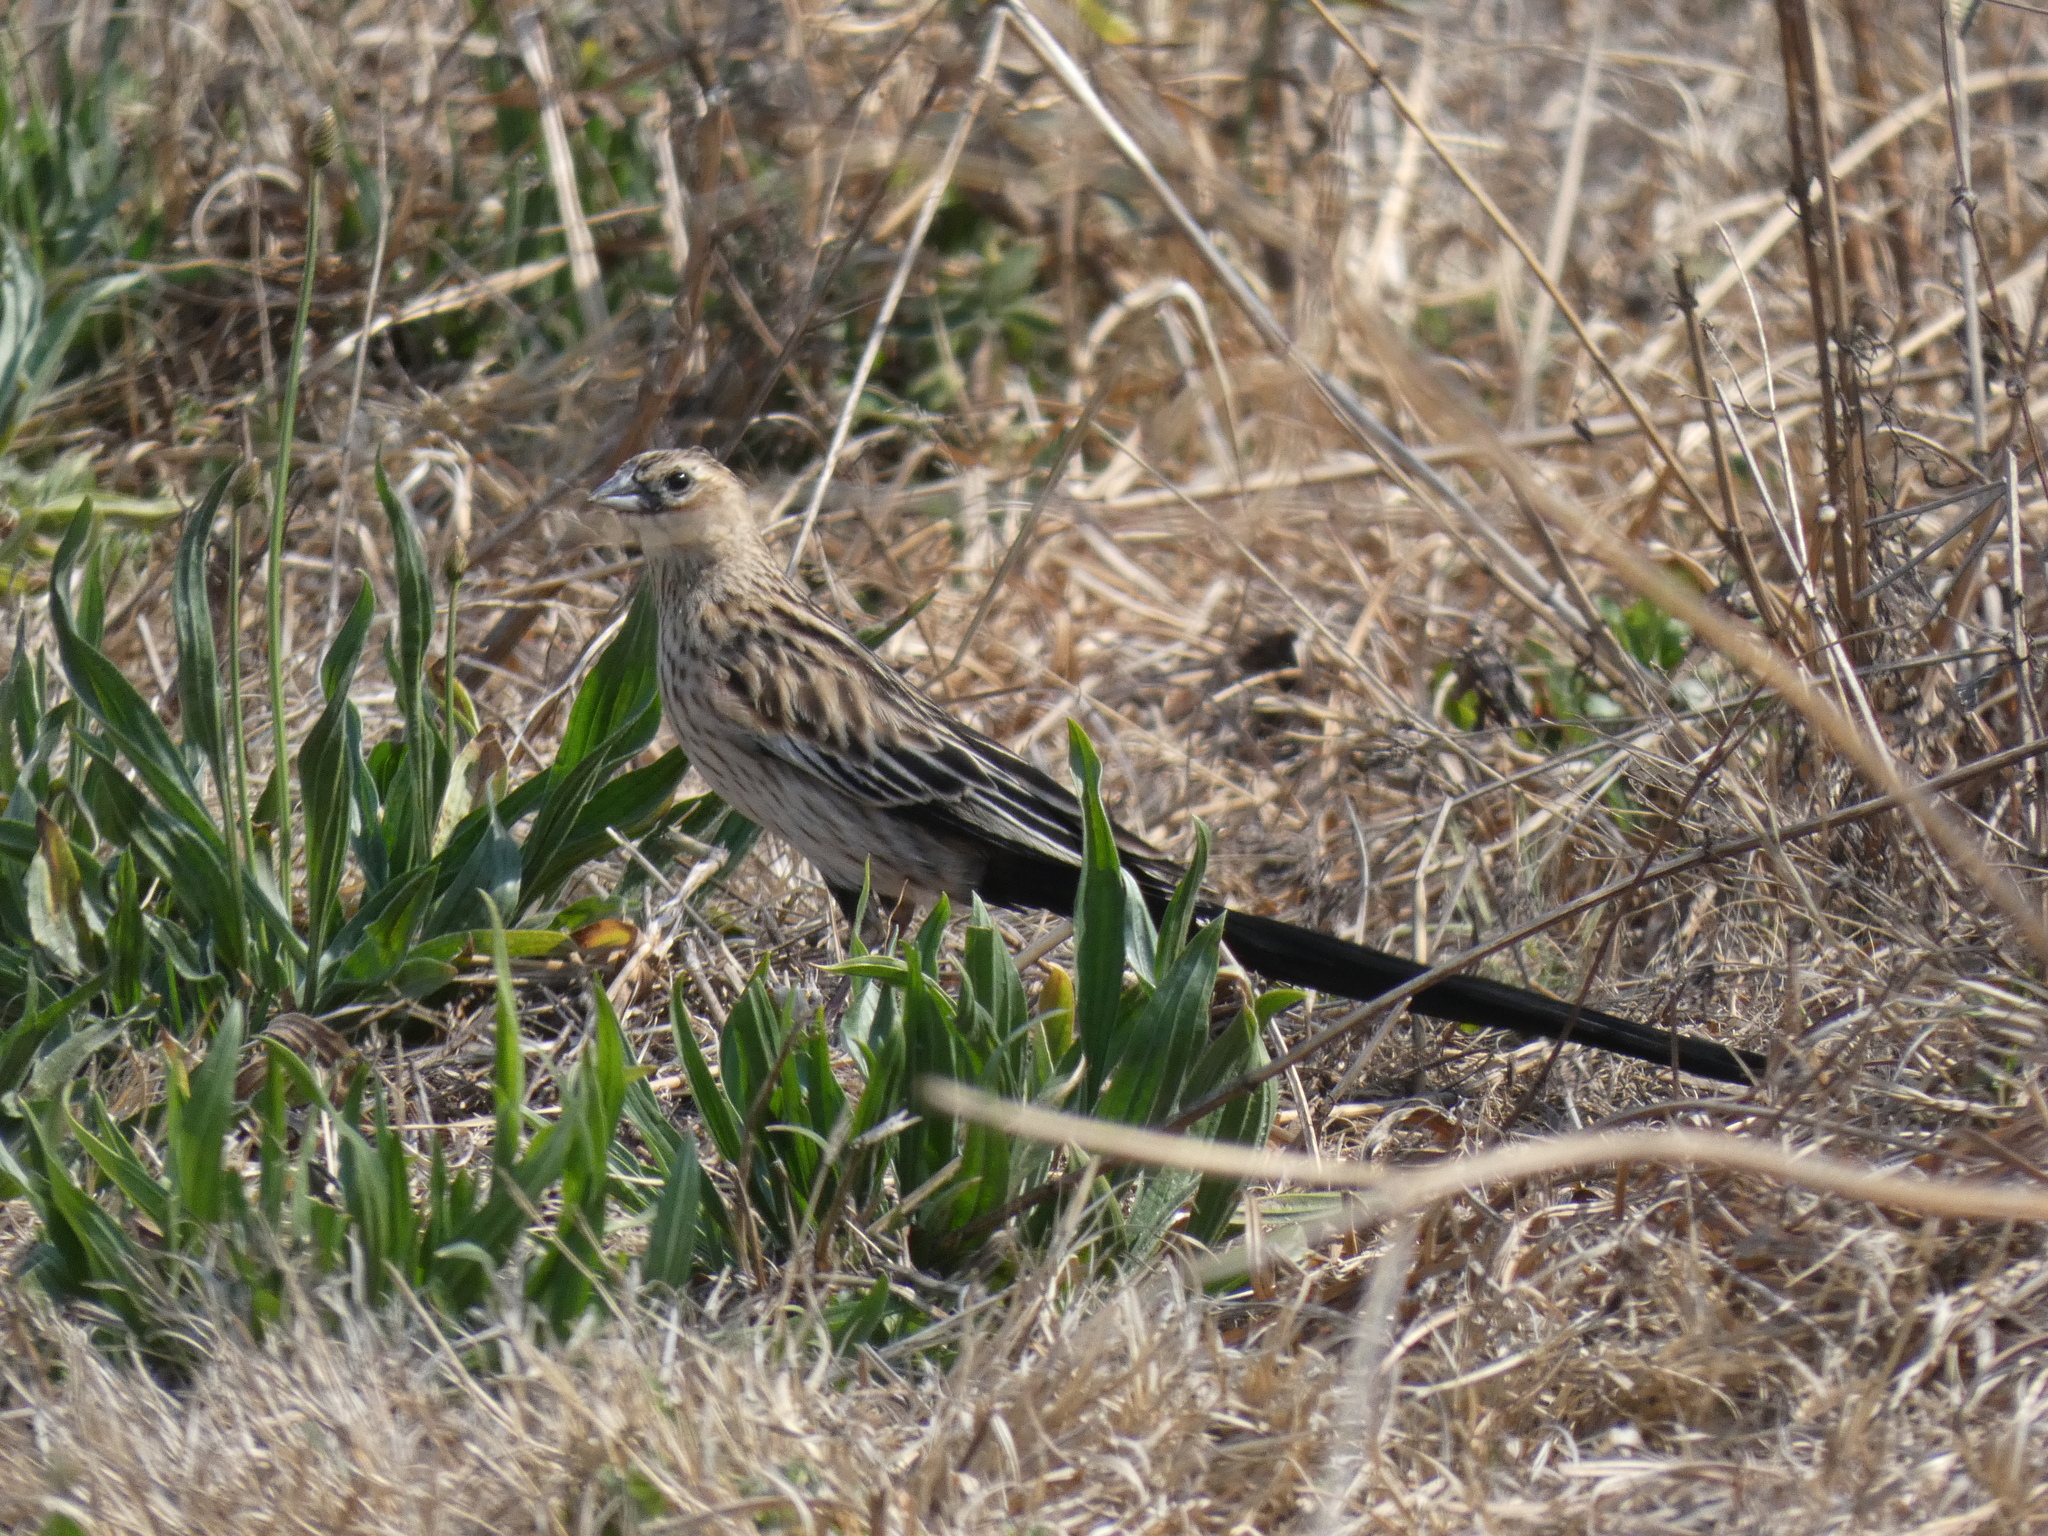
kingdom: Animalia
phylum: Chordata
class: Aves
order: Passeriformes
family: Ploceidae
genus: Euplectes
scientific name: Euplectes progne
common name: Long-tailed widowbird
